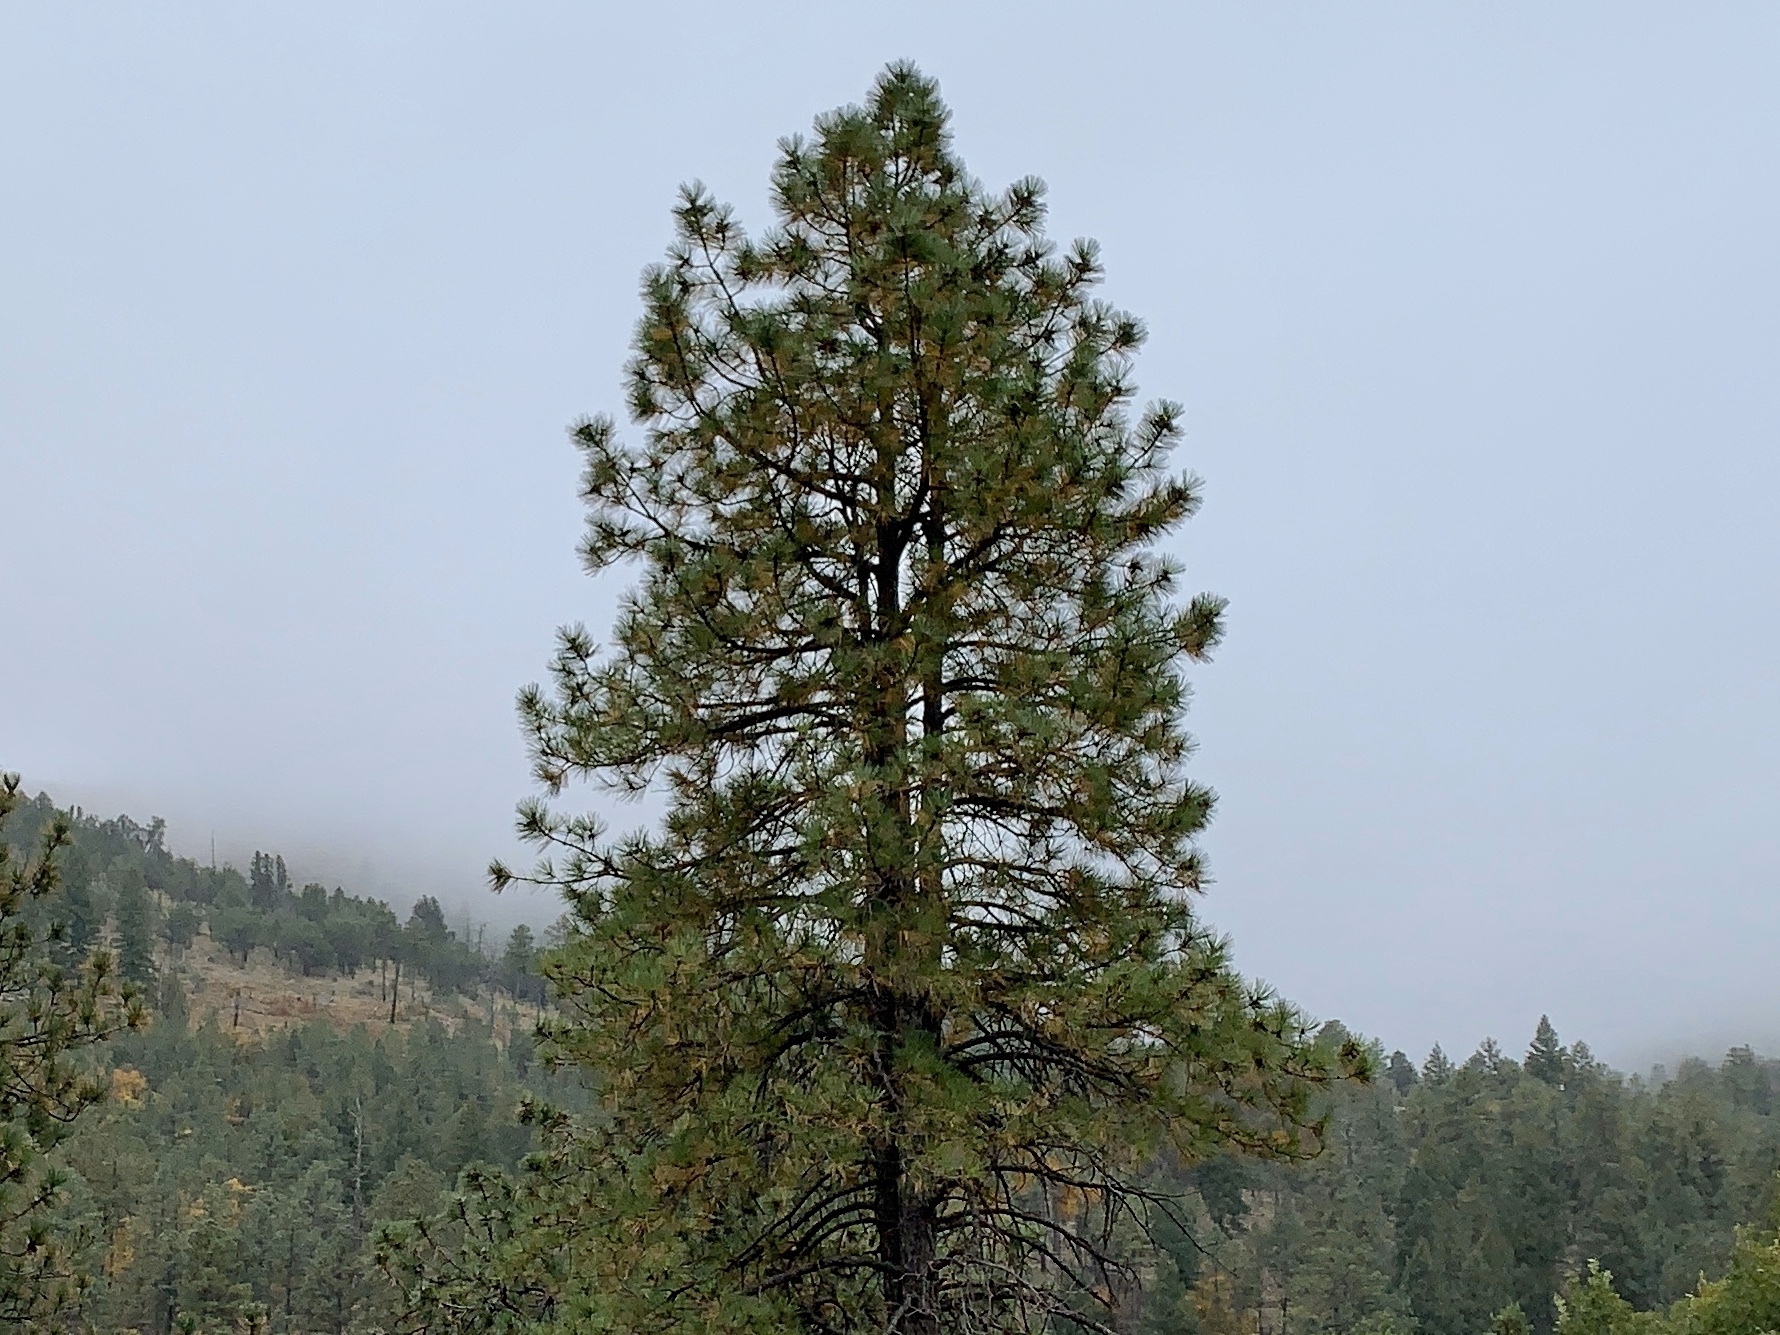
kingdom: Plantae
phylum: Tracheophyta
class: Pinopsida
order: Pinales
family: Pinaceae
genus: Pinus
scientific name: Pinus ponderosa
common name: Western yellow-pine
